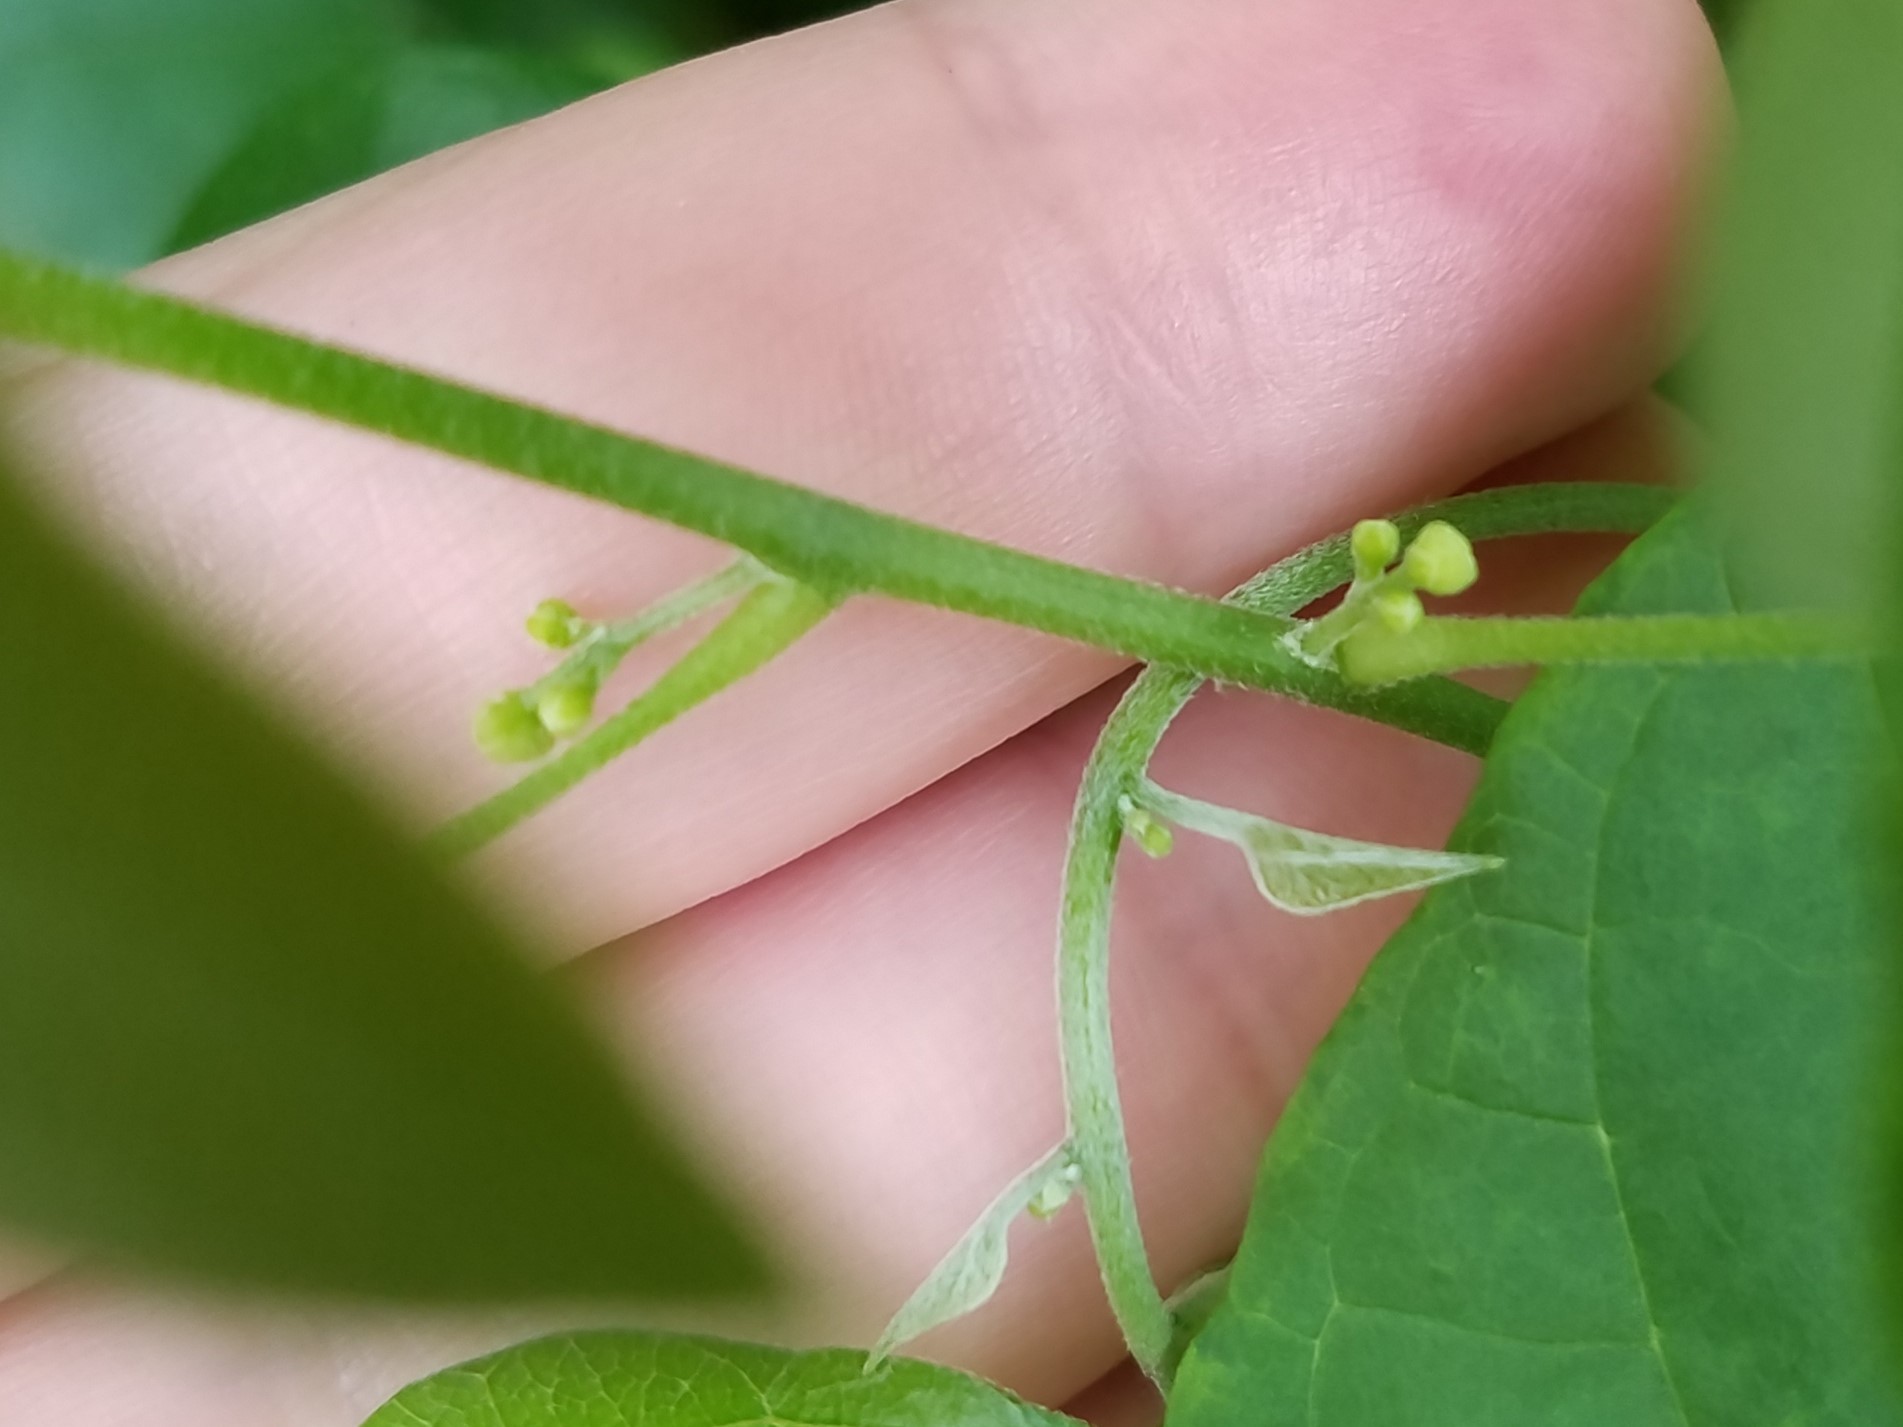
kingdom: Plantae
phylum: Tracheophyta
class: Magnoliopsida
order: Ranunculales
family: Menispermaceae
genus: Cocculus
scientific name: Cocculus carolinus
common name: Carolina moonseed
